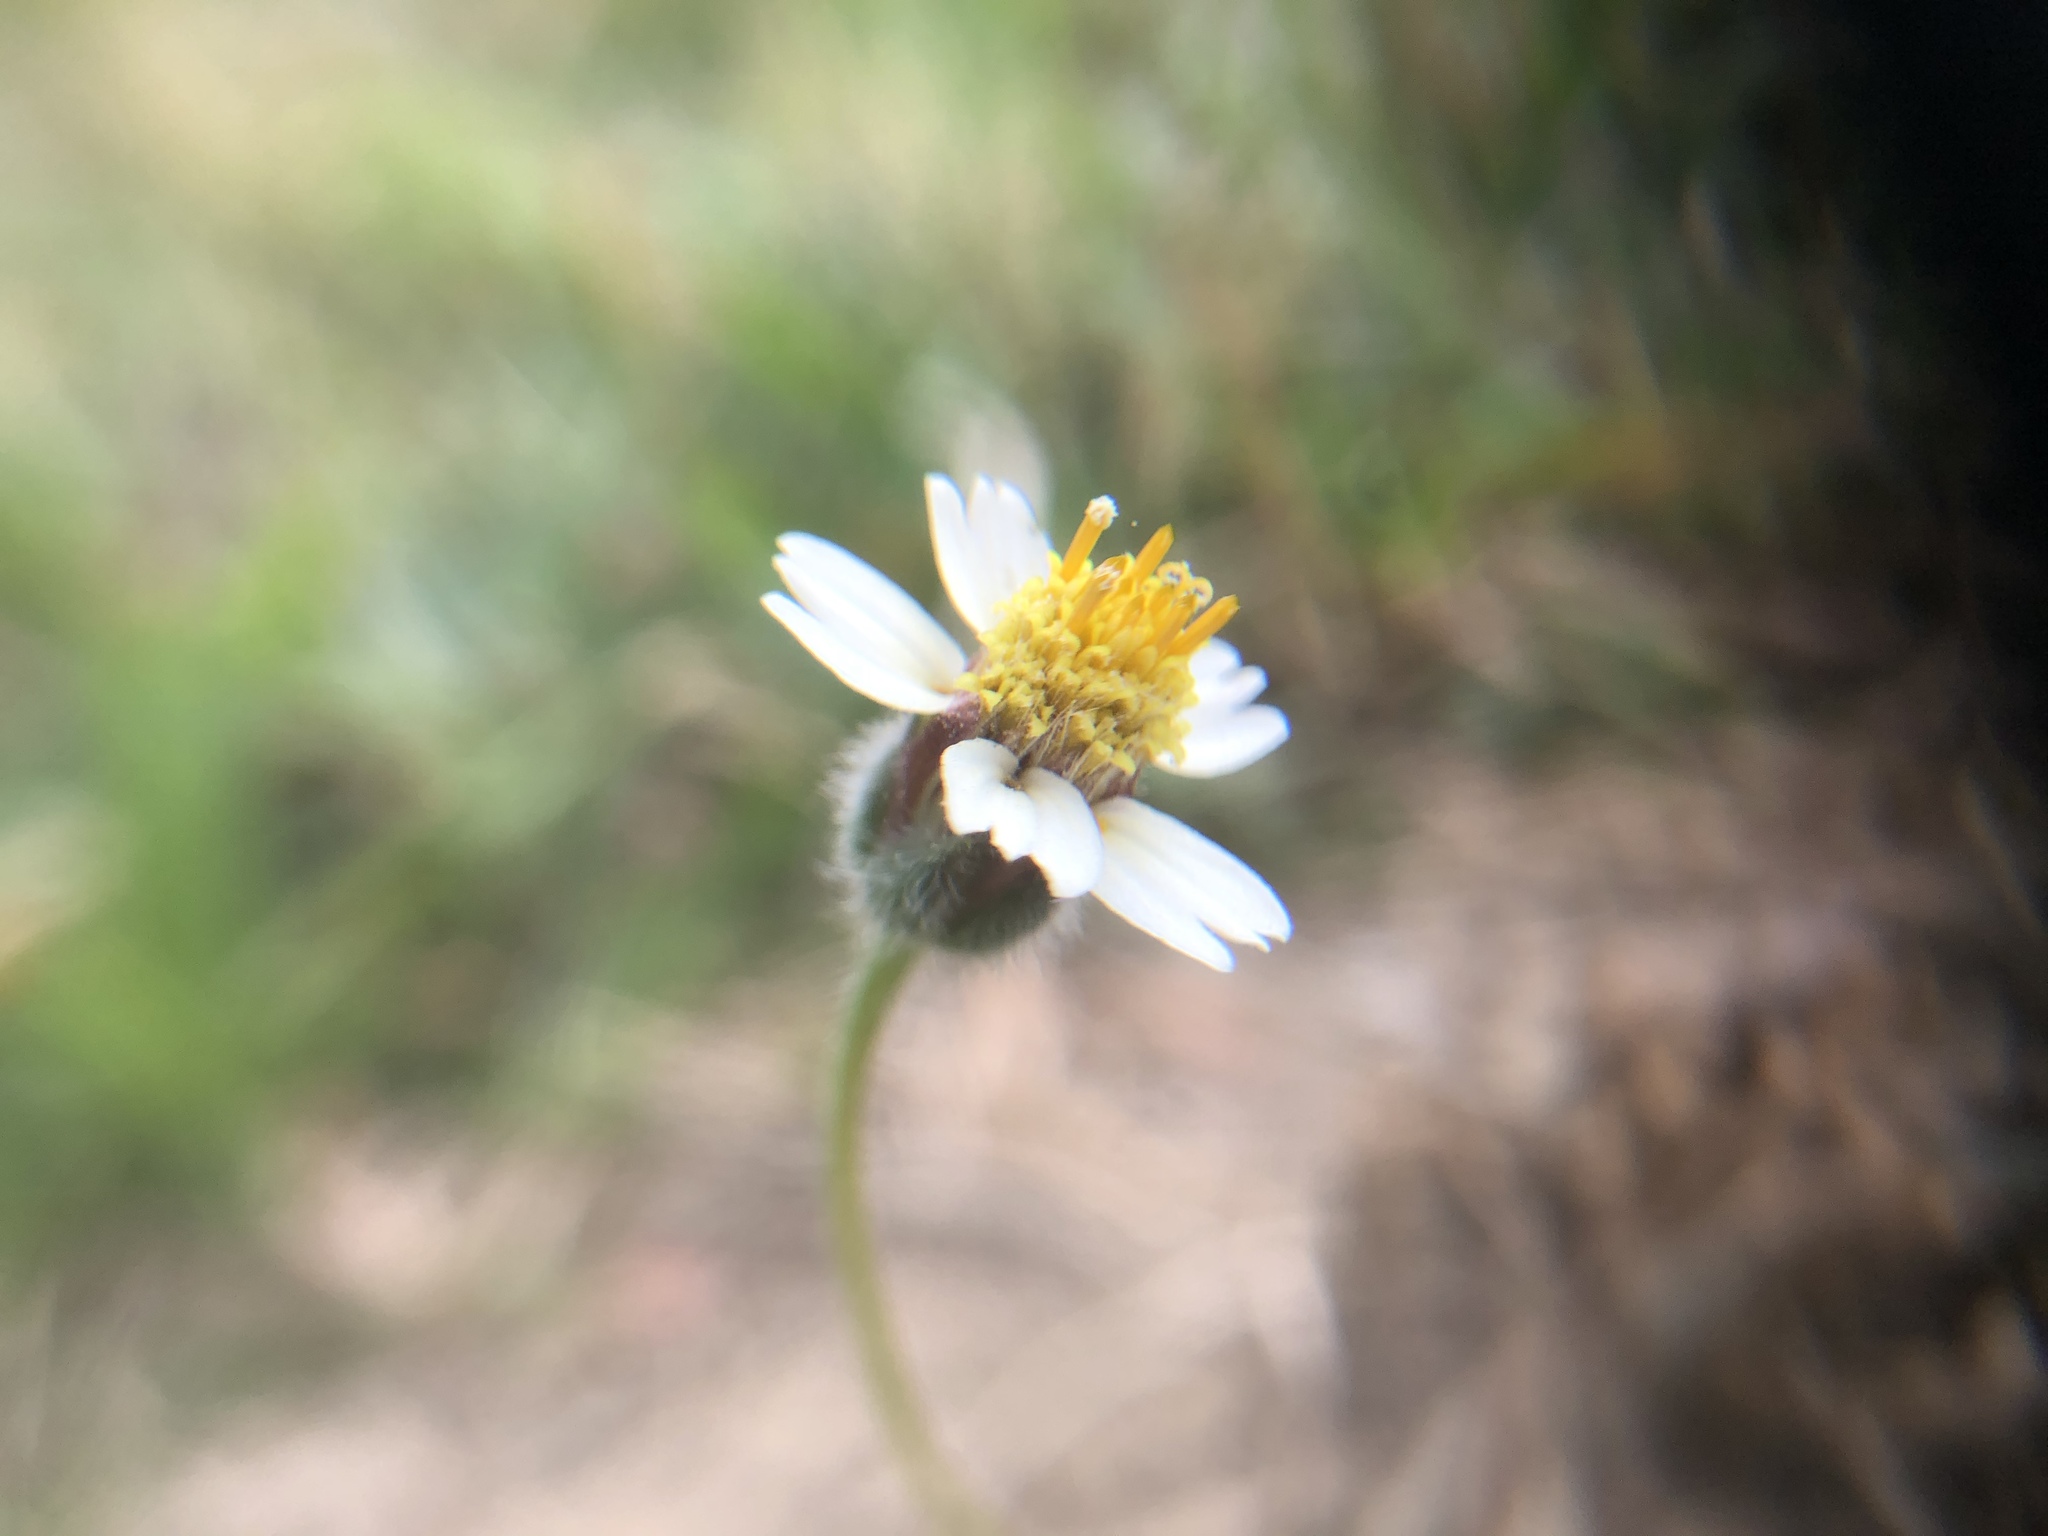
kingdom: Plantae
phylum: Tracheophyta
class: Magnoliopsida
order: Asterales
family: Asteraceae
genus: Tridax
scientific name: Tridax procumbens
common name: Coatbuttons
